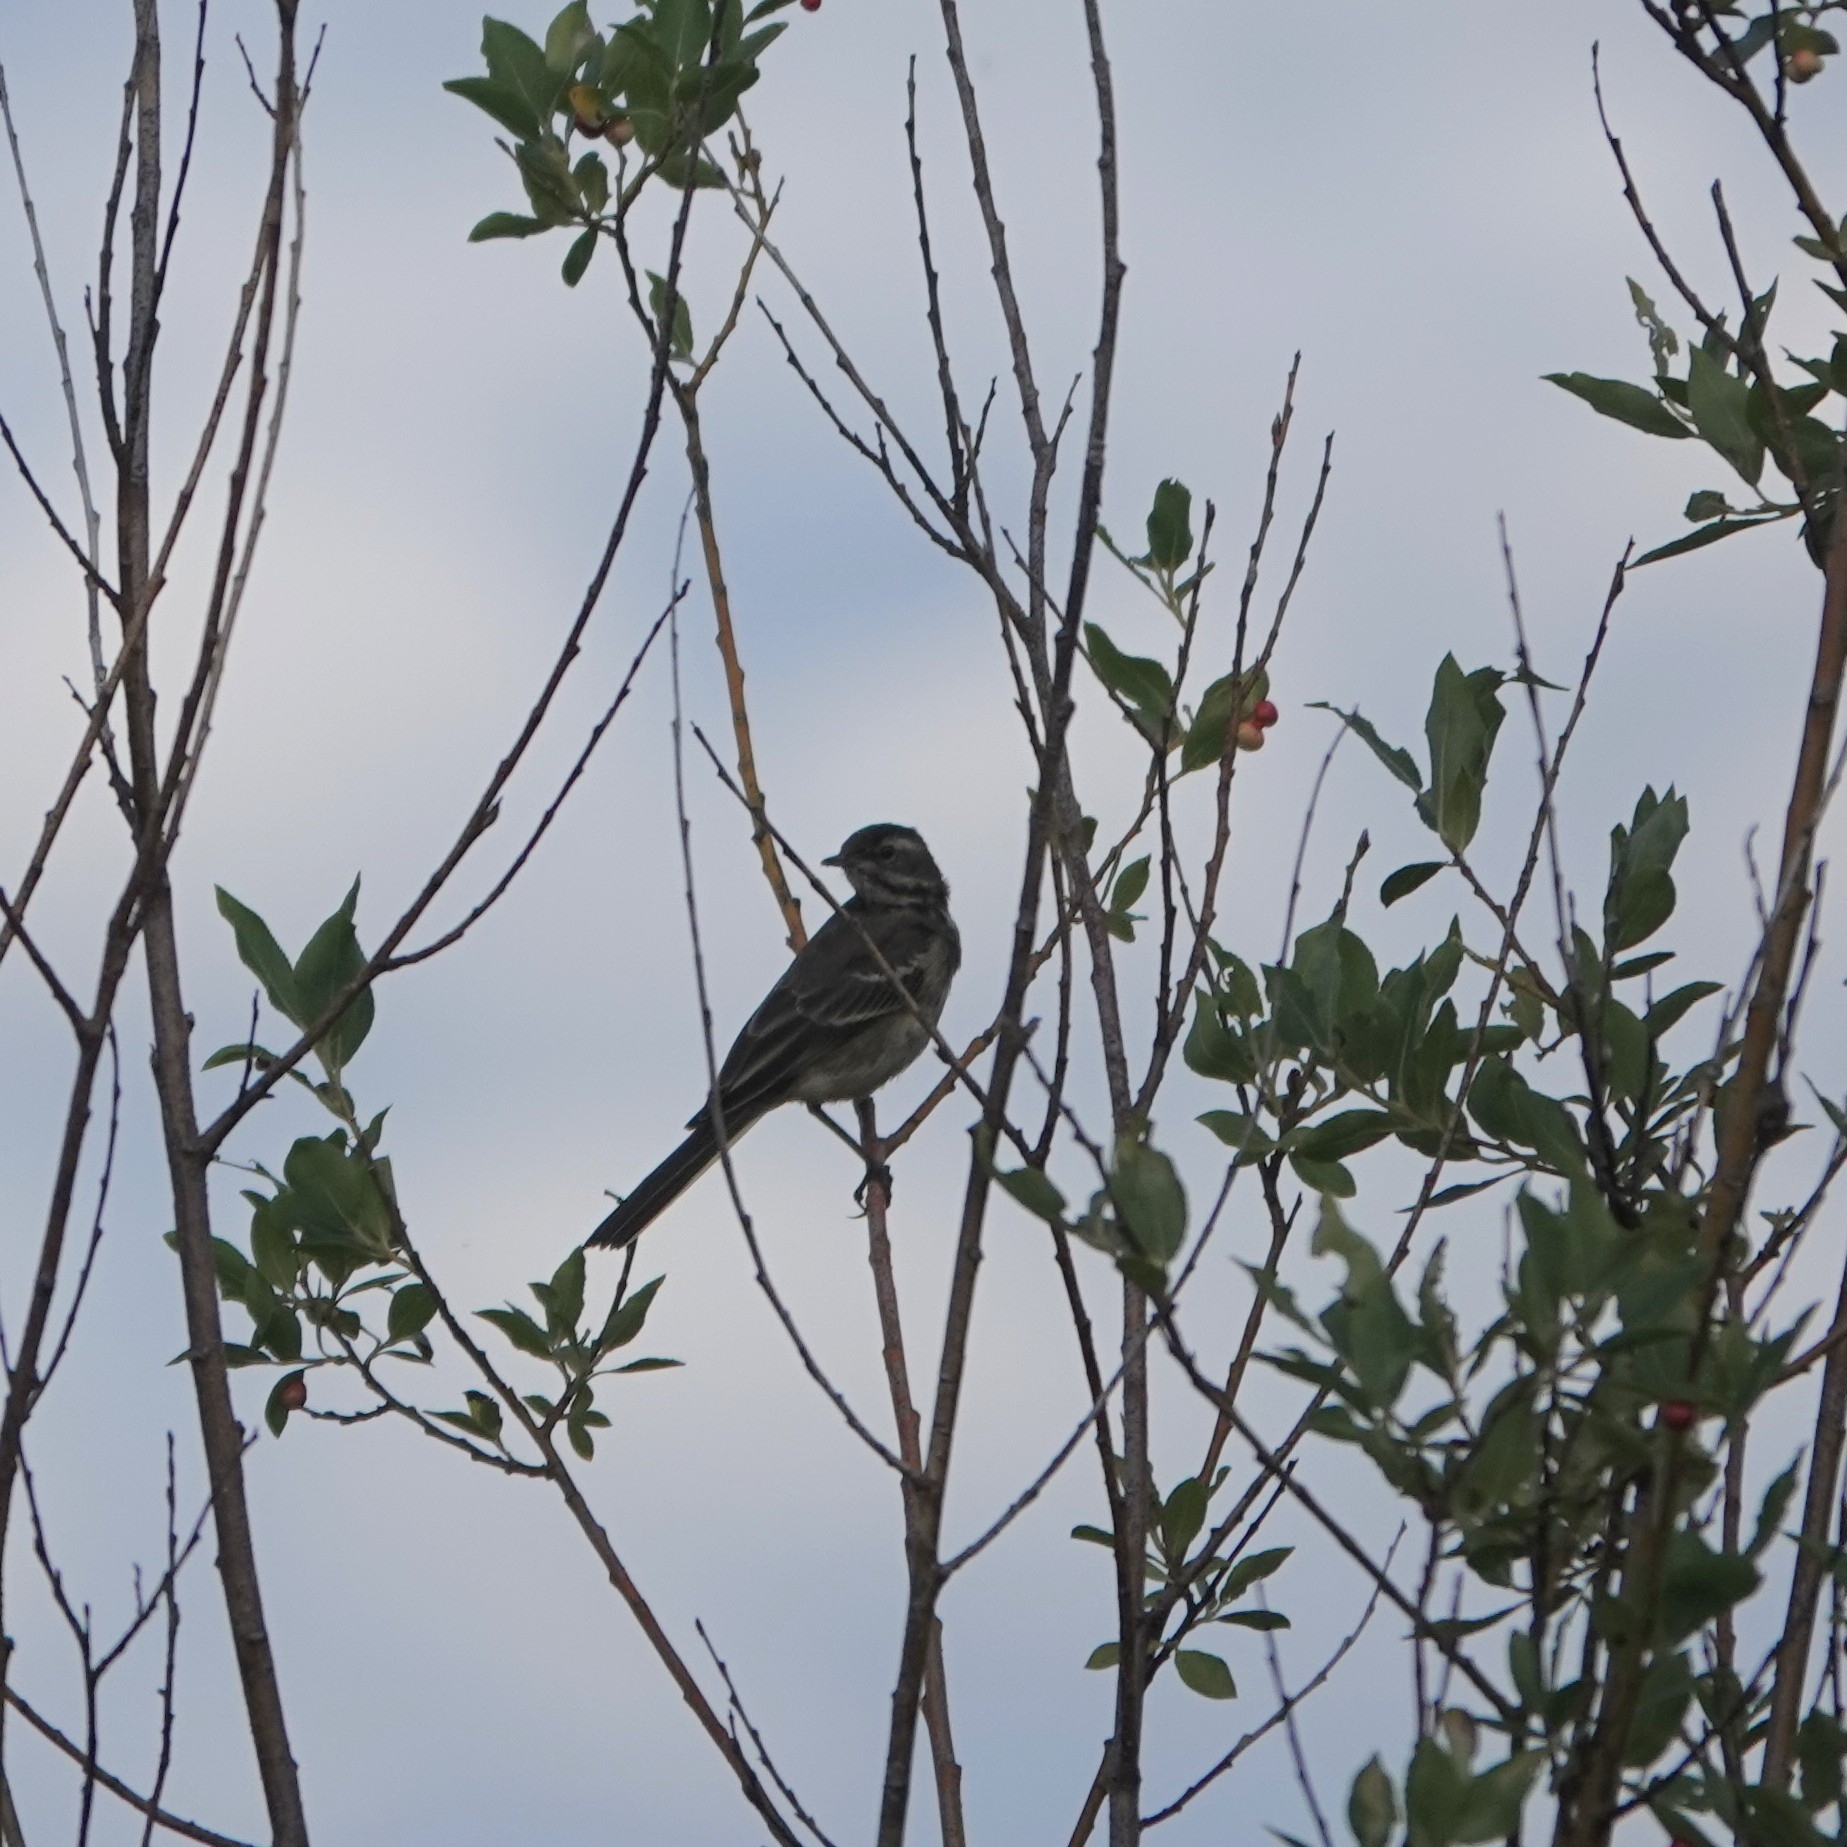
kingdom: Animalia
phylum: Chordata
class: Aves
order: Passeriformes
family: Motacillidae
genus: Motacilla
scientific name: Motacilla alba
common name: White wagtail
